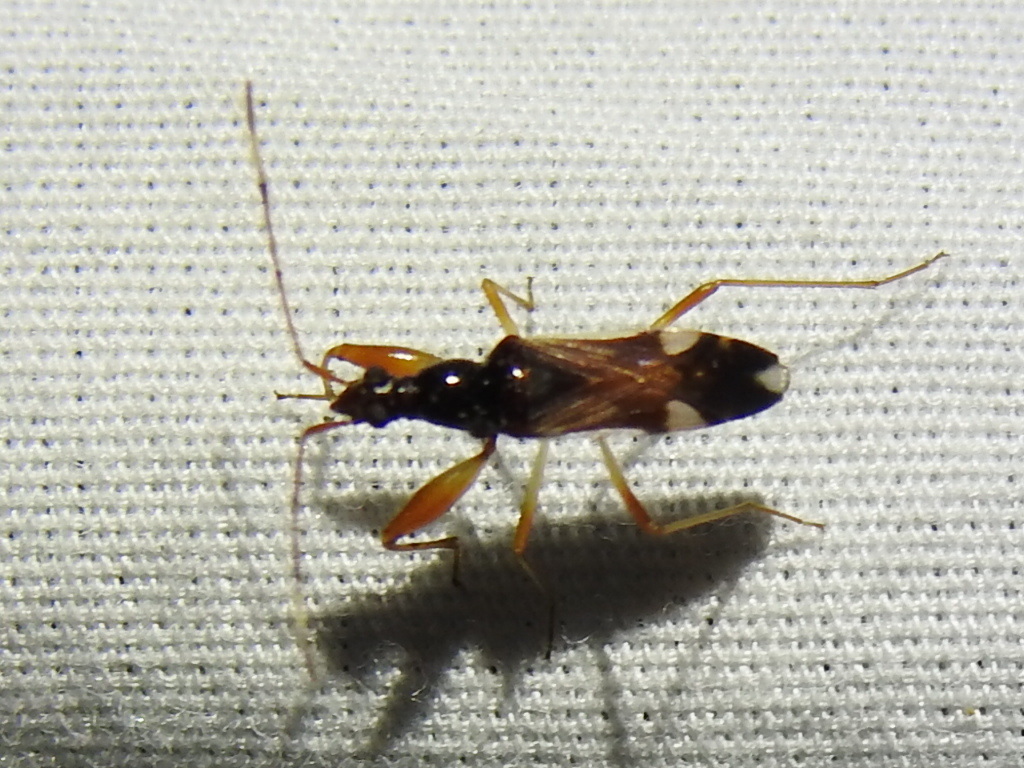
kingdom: Animalia
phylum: Arthropoda
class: Insecta
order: Hemiptera
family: Rhyparochromidae
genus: Pseudopamera
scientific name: Pseudopamera aurivilliana
